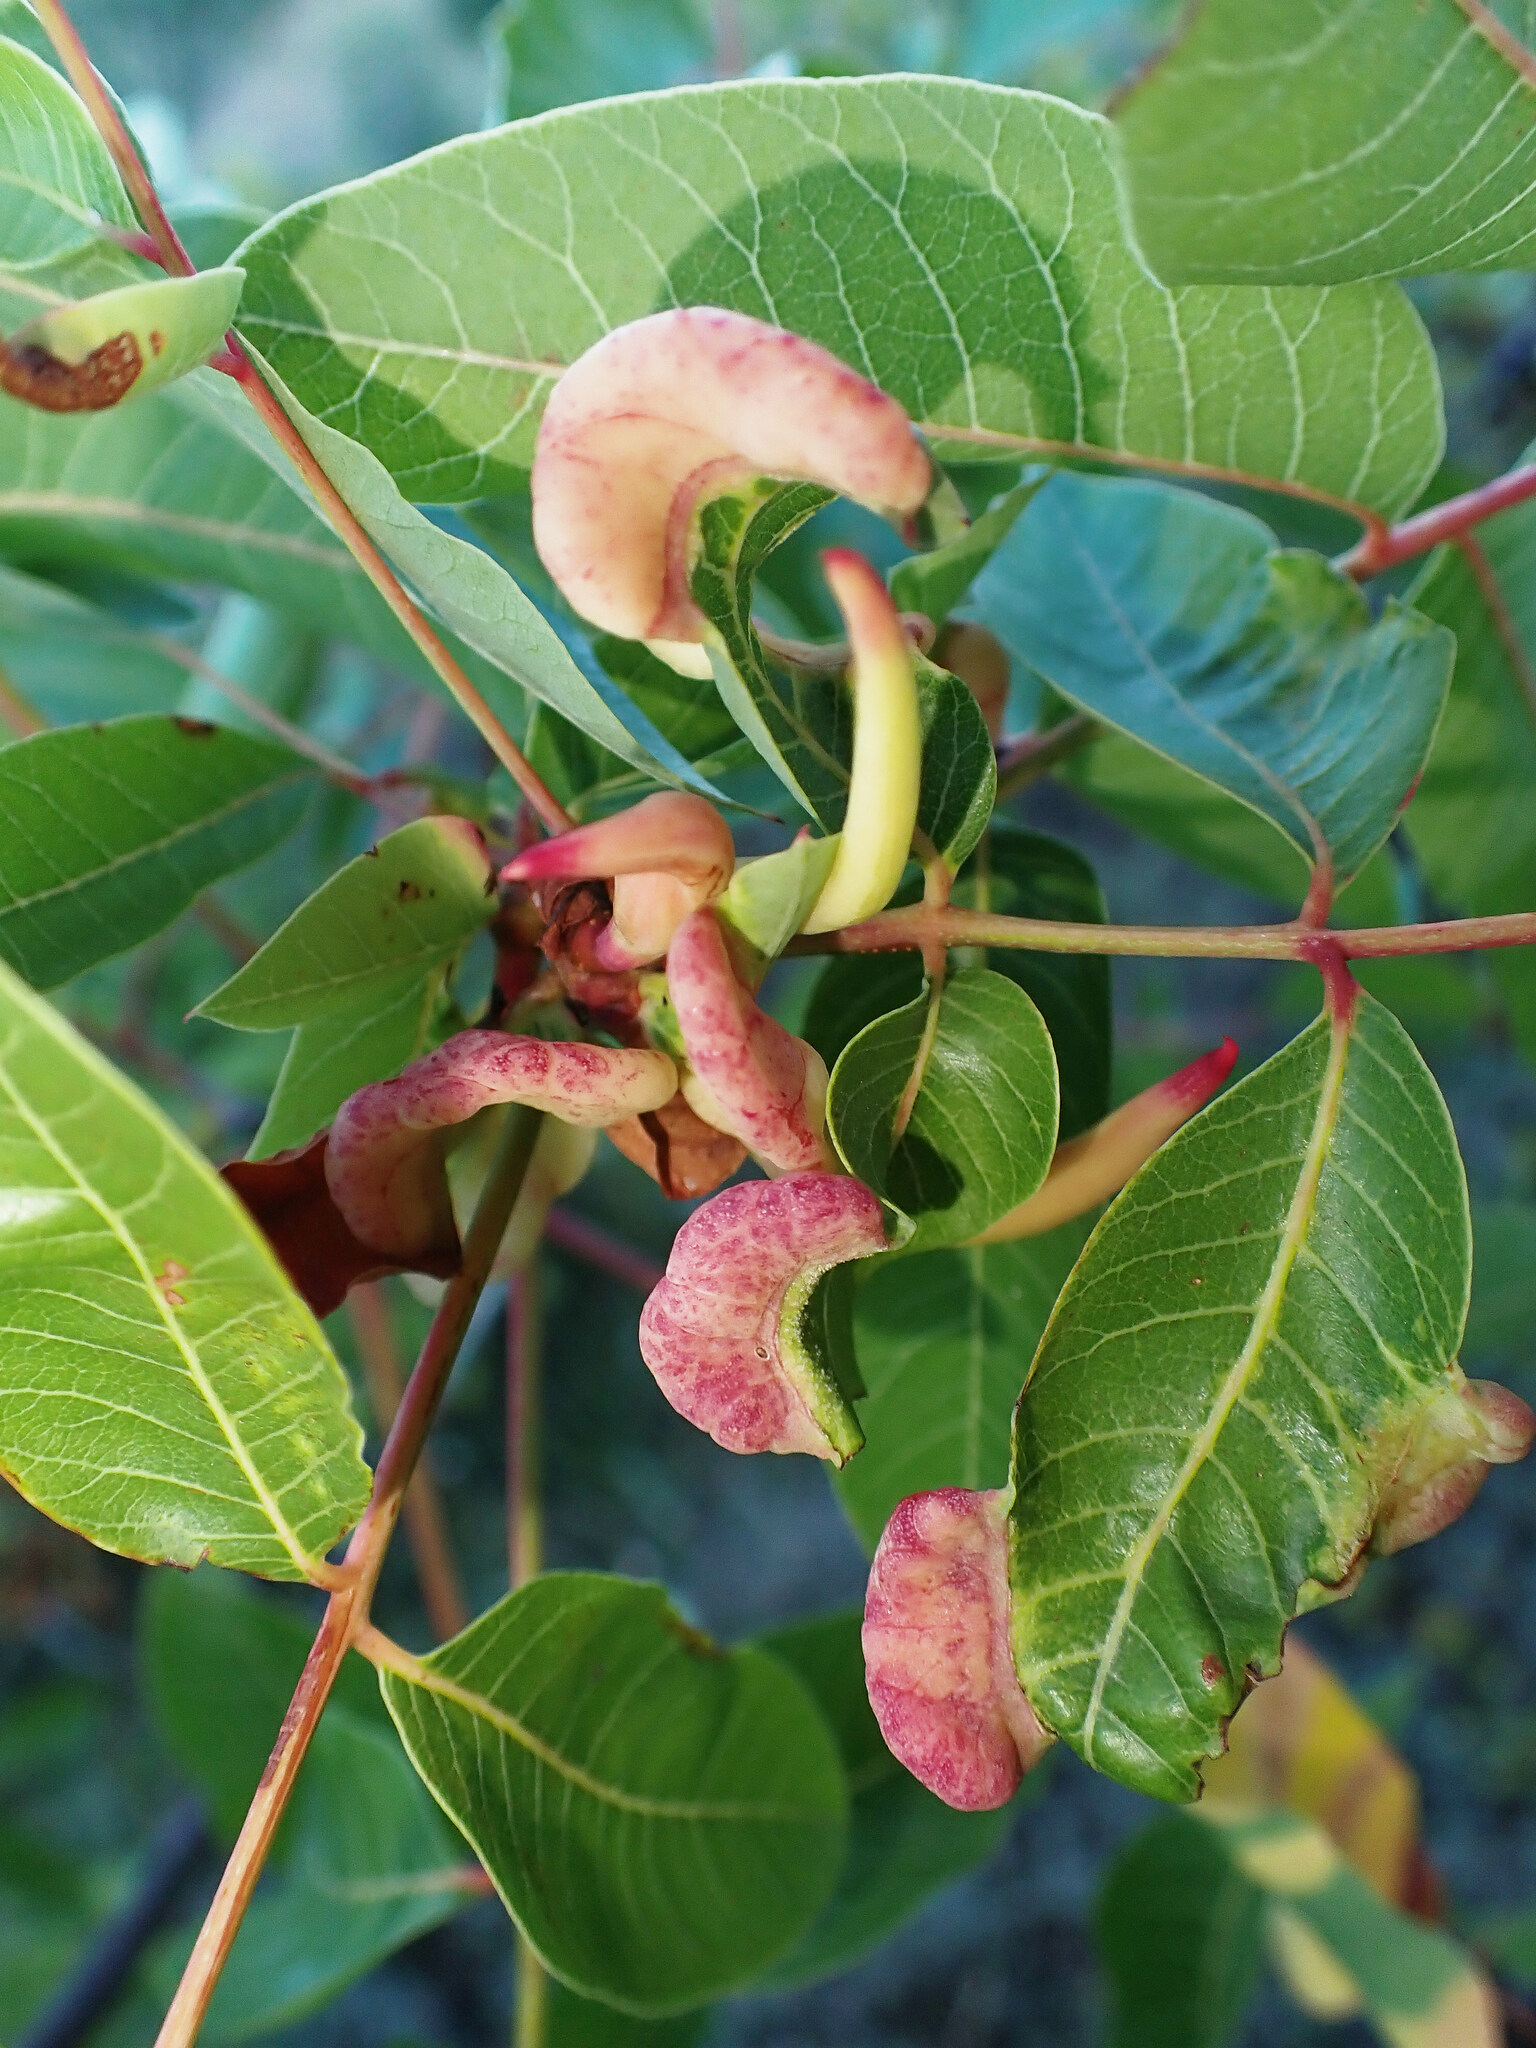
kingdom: Animalia
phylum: Arthropoda
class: Insecta
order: Hemiptera
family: Aphididae
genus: Baizongia
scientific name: Baizongia pistaciae
